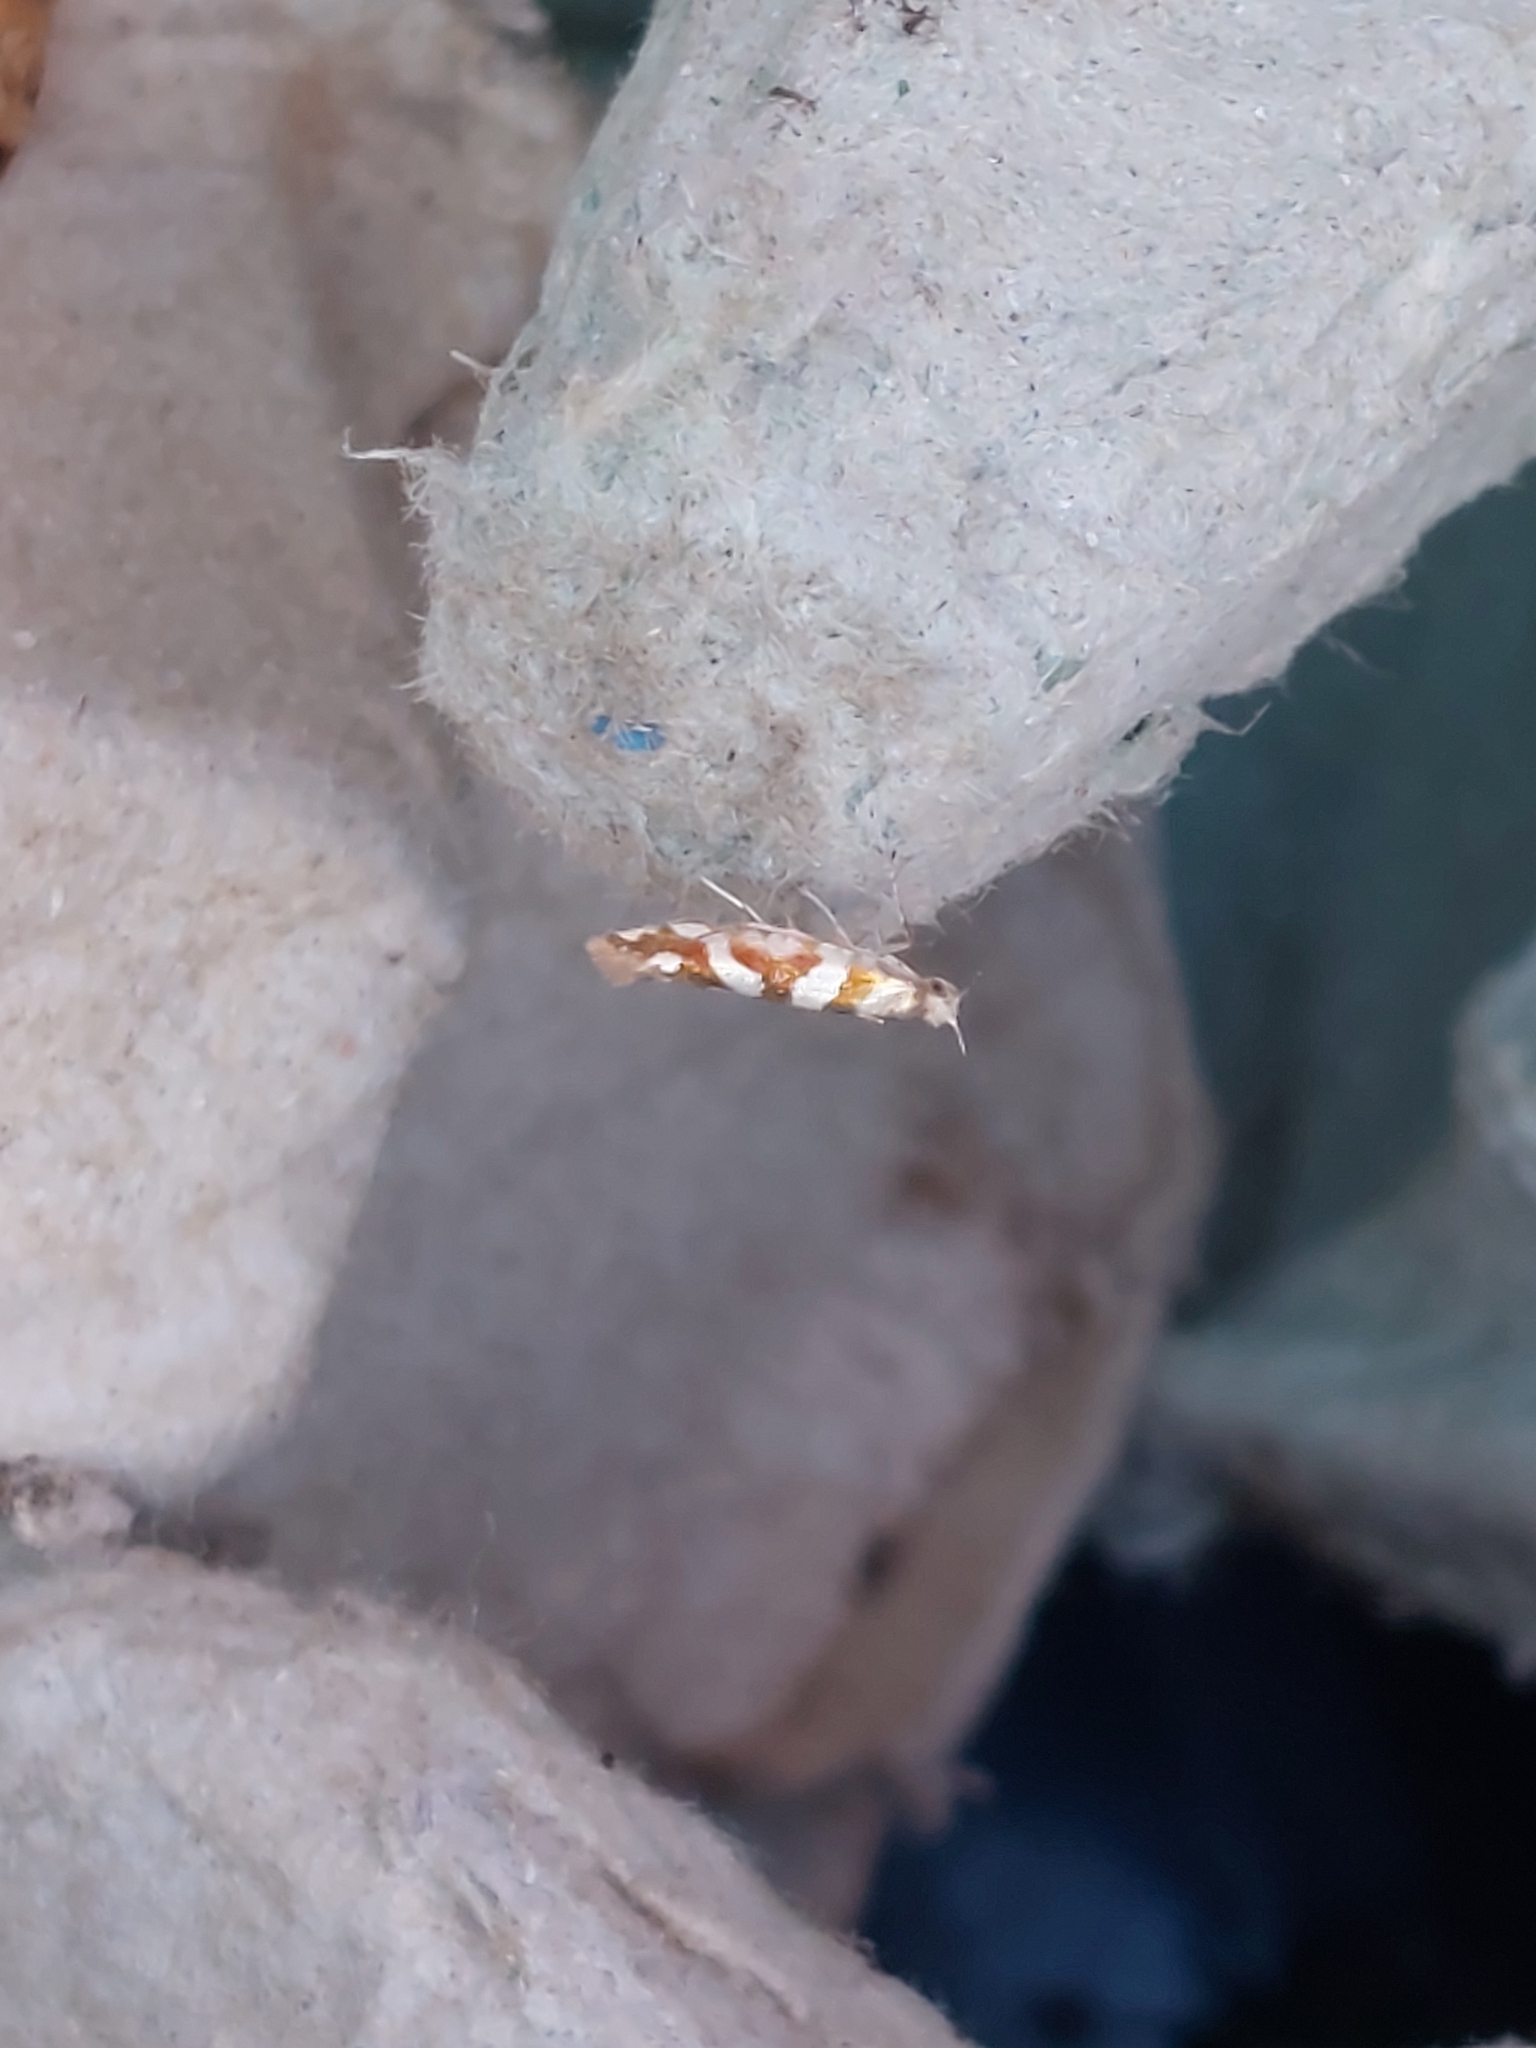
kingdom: Animalia
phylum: Arthropoda
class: Insecta
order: Lepidoptera
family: Argyresthiidae
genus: Argyresthia
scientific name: Argyresthia goedartella
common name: Golden argent
